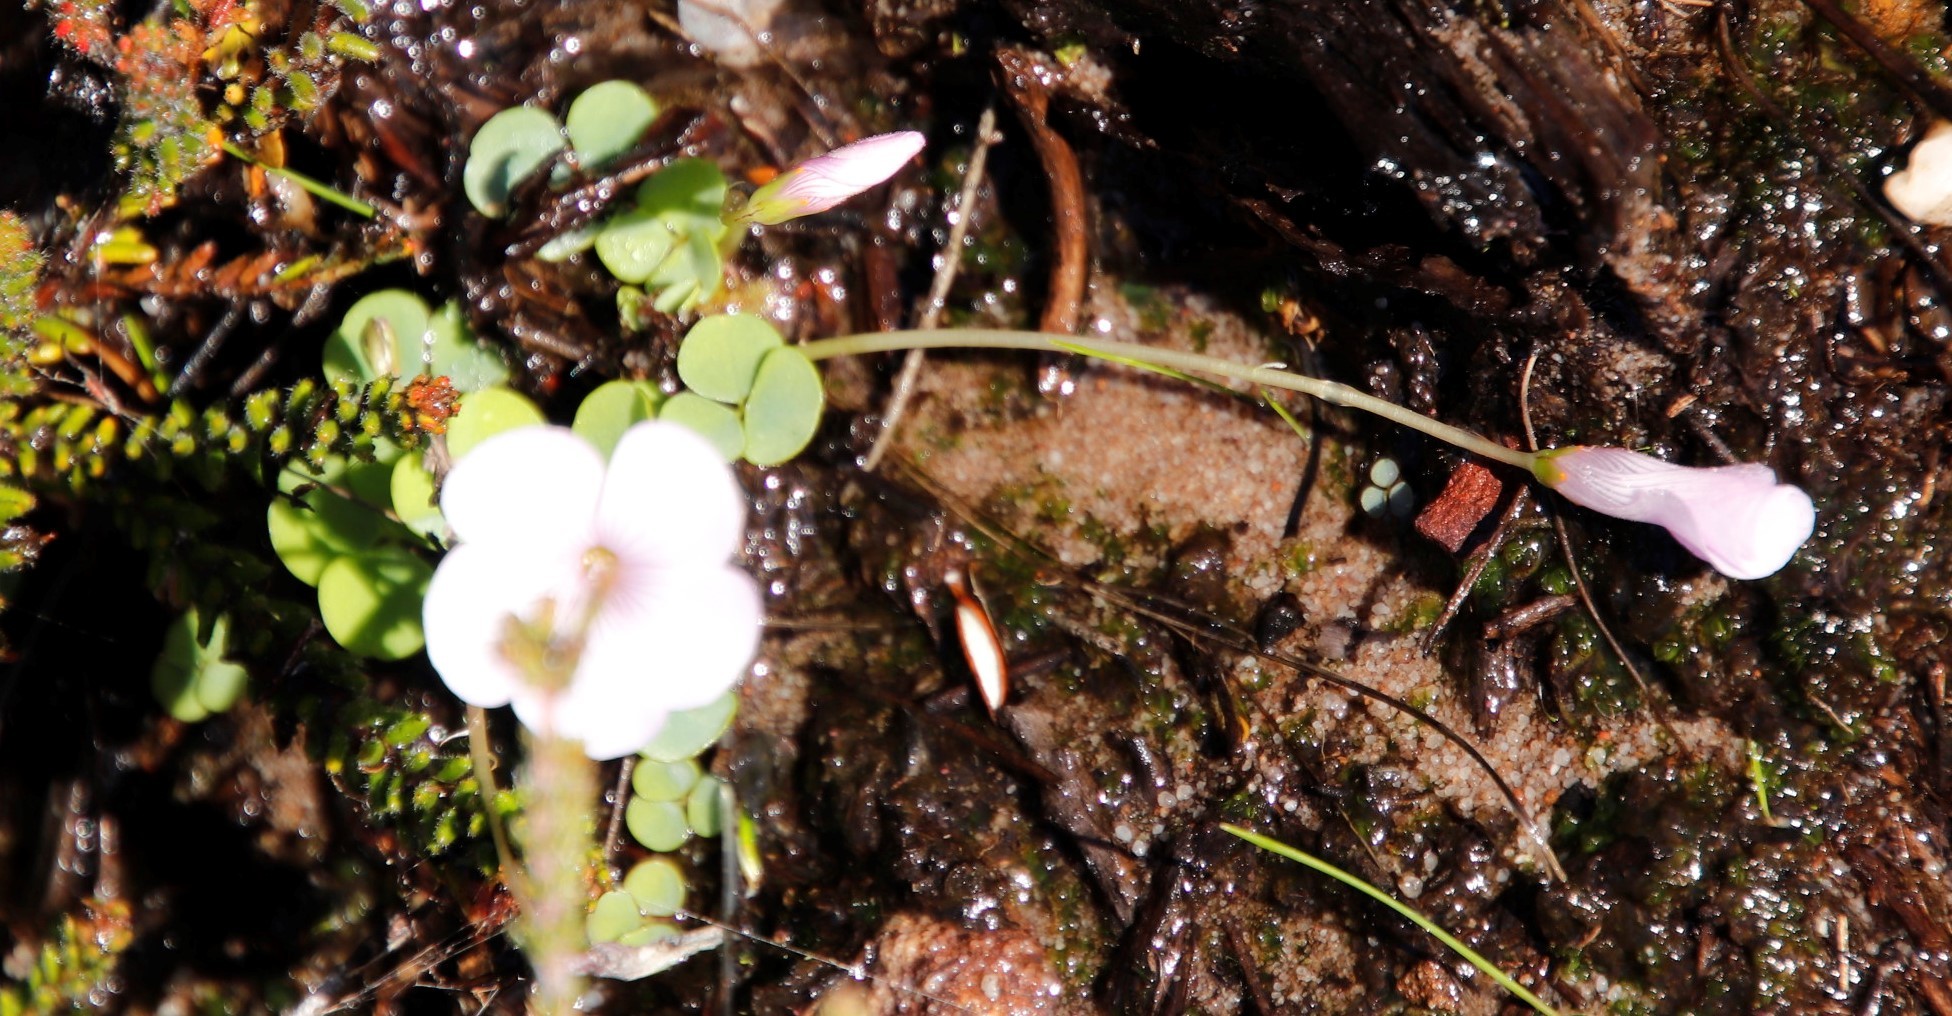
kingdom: Plantae
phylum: Tracheophyta
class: Magnoliopsida
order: Oxalidales
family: Oxalidaceae
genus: Oxalis
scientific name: Oxalis commutata
